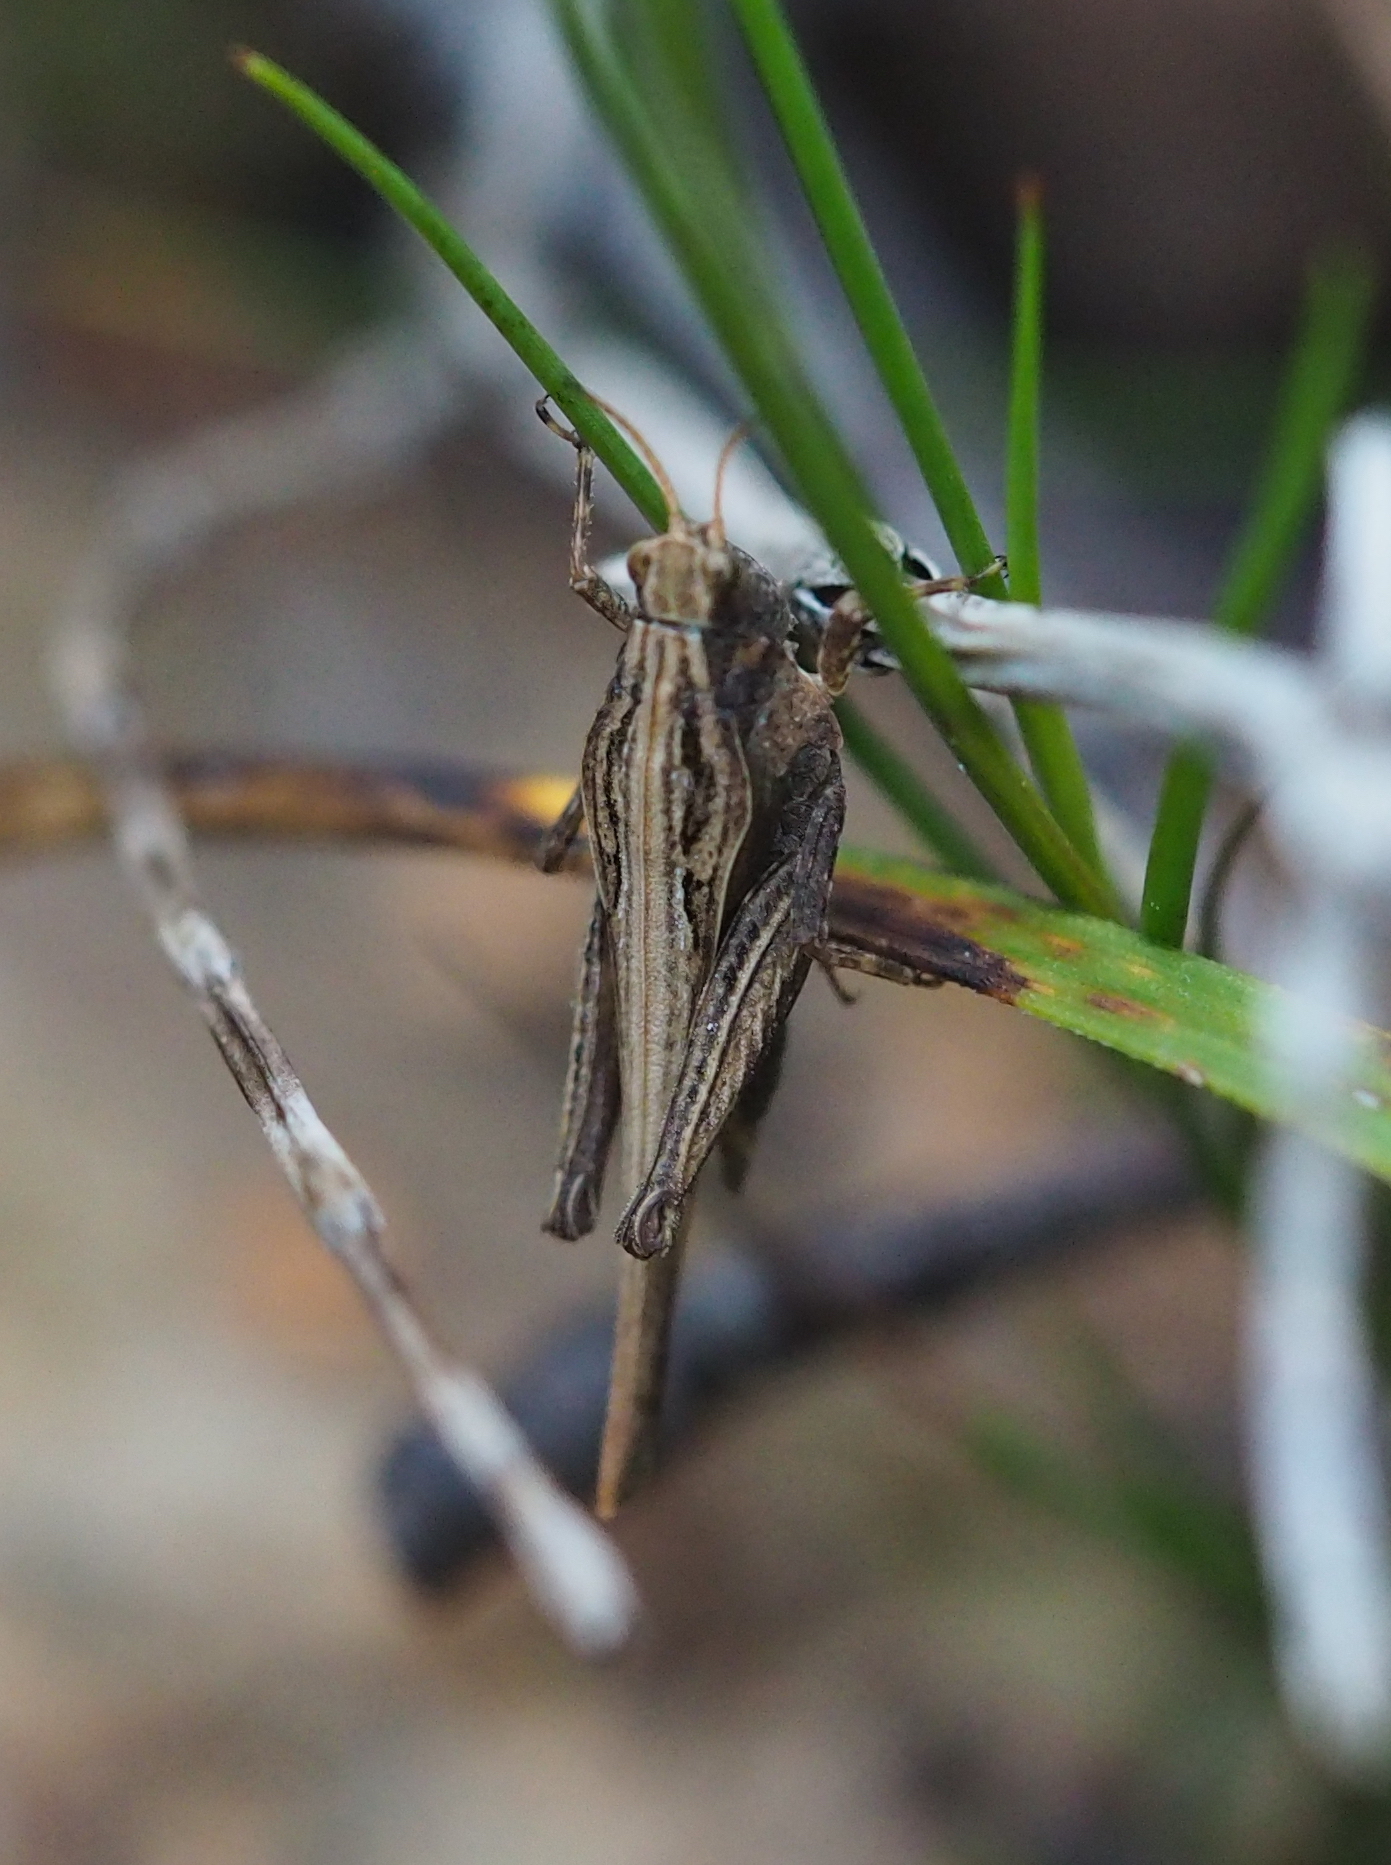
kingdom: Animalia
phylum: Arthropoda
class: Insecta
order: Orthoptera
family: Tetrigidae
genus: Tetrix
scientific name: Tetrix subulata
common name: Slender ground-hopper
